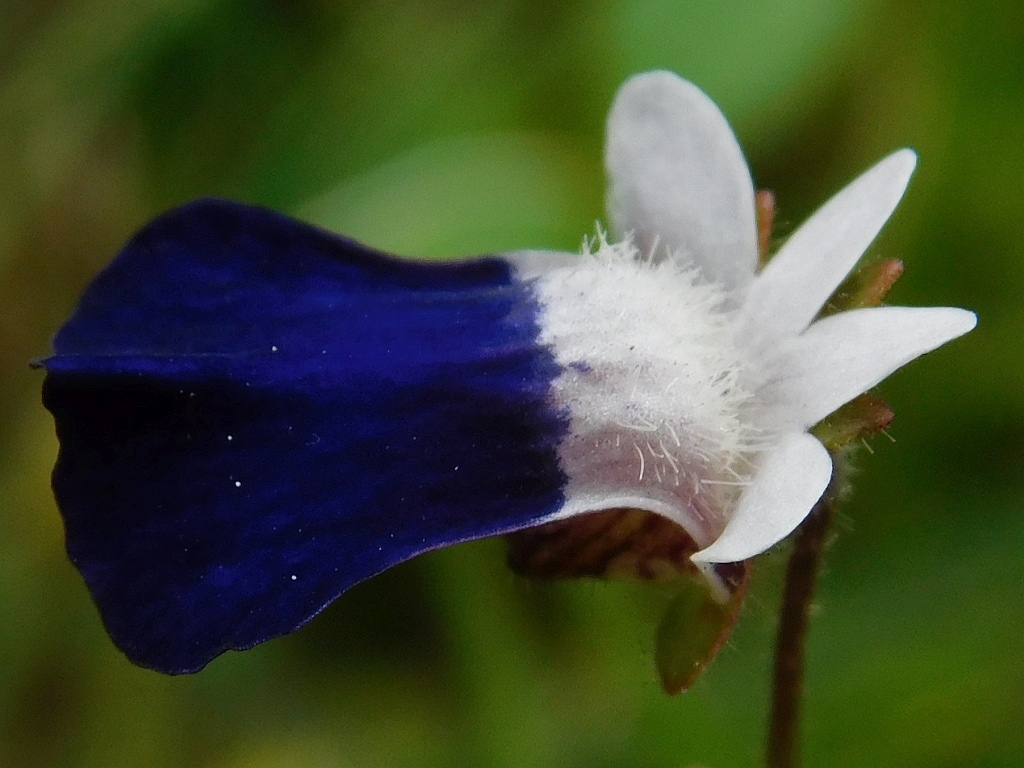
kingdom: Plantae
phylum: Tracheophyta
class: Magnoliopsida
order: Lamiales
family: Scrophulariaceae
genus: Nemesia
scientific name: Nemesia barbata
